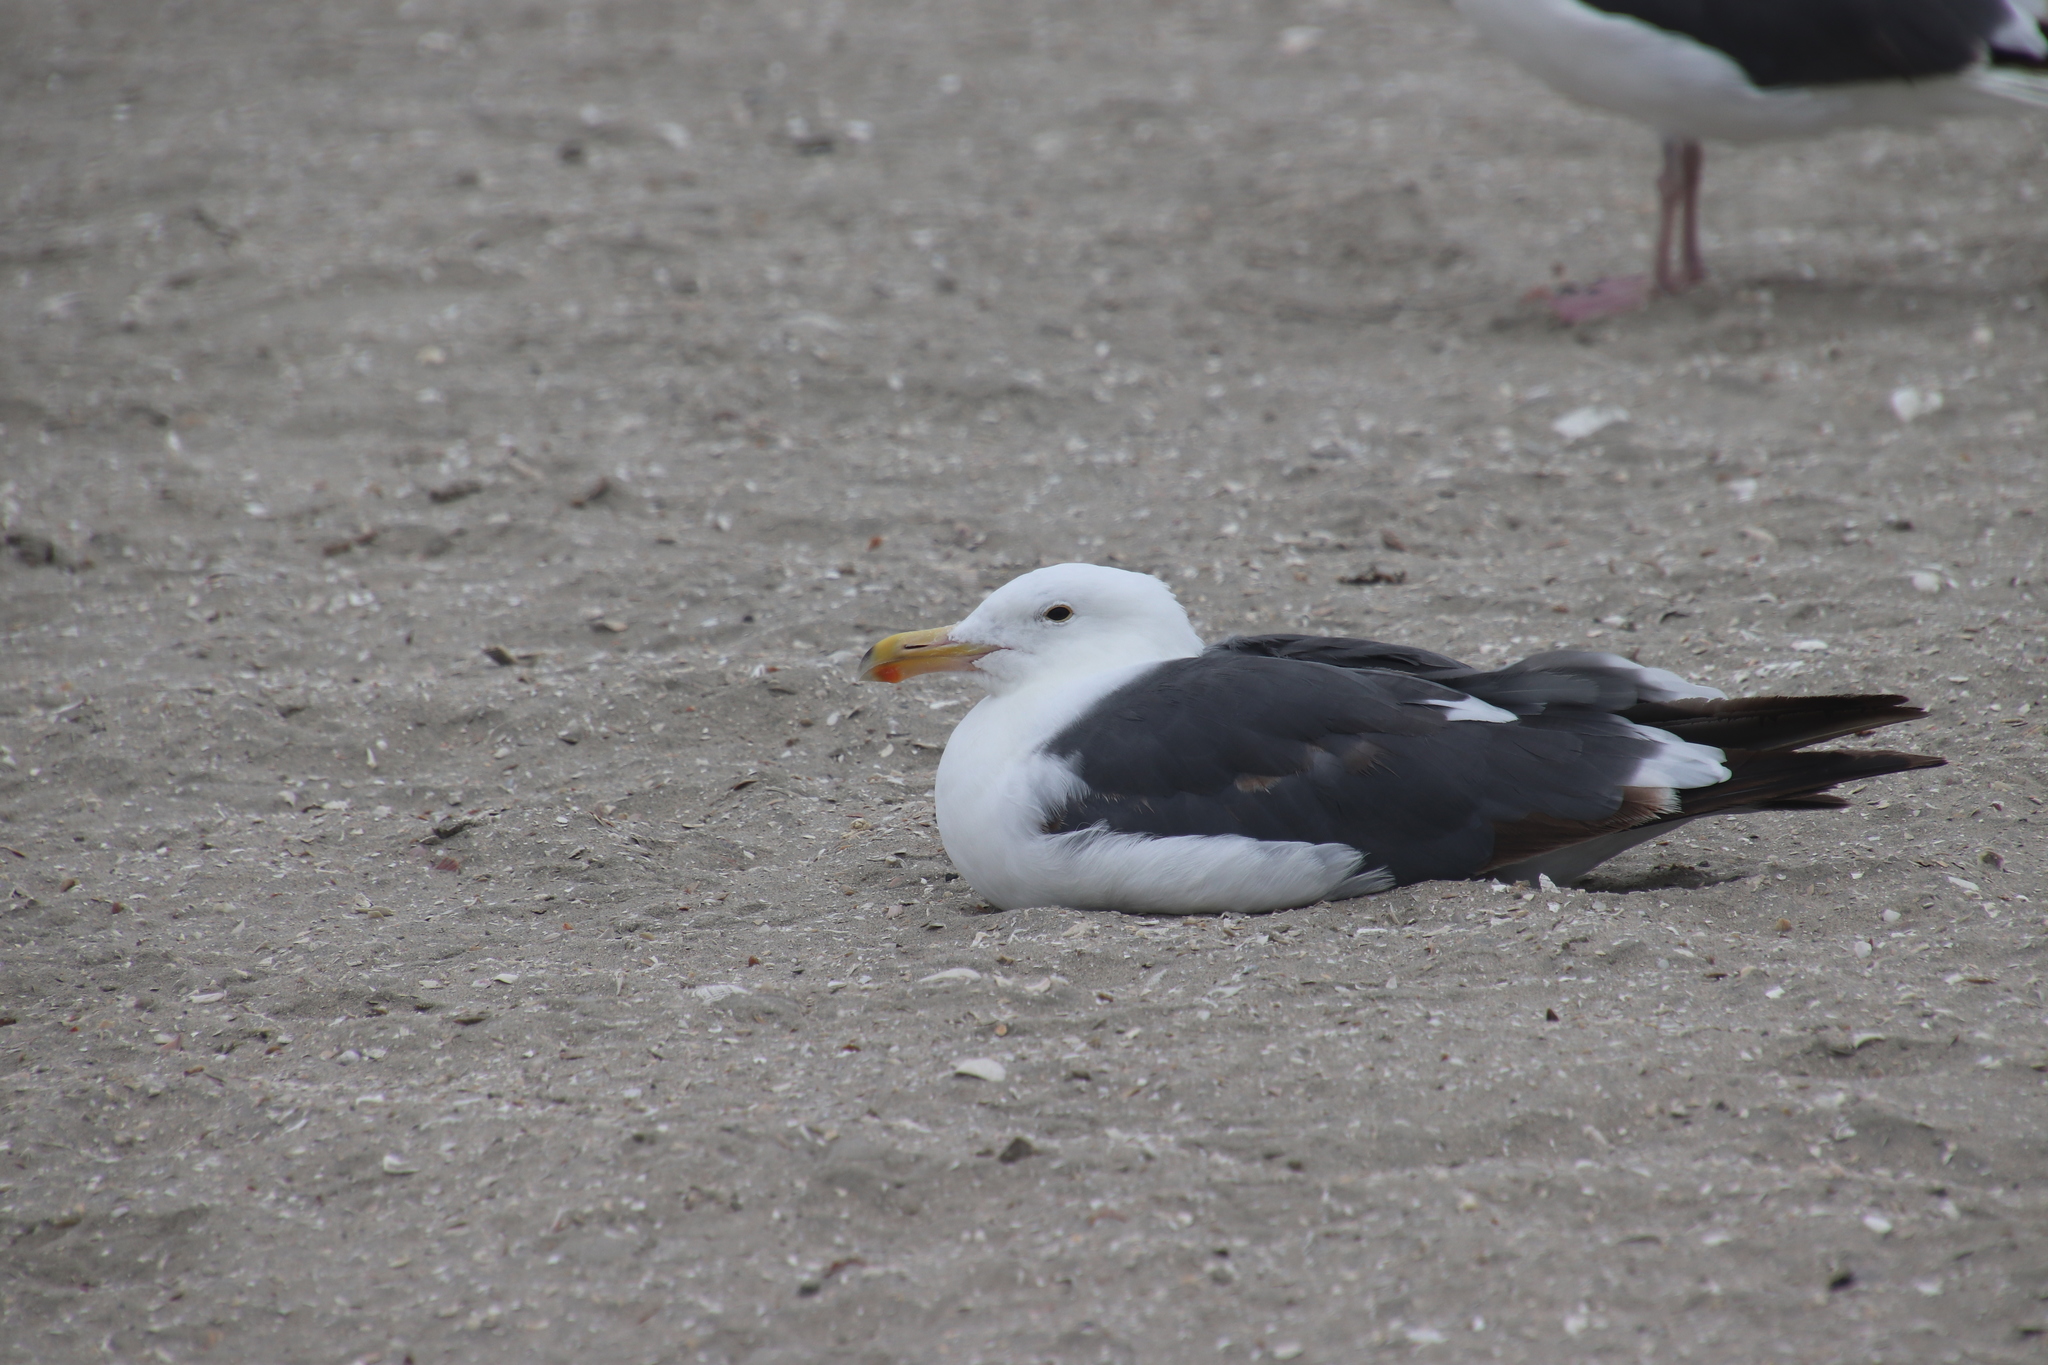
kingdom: Animalia
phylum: Chordata
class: Aves
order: Charadriiformes
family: Laridae
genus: Larus
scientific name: Larus occidentalis
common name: Western gull
